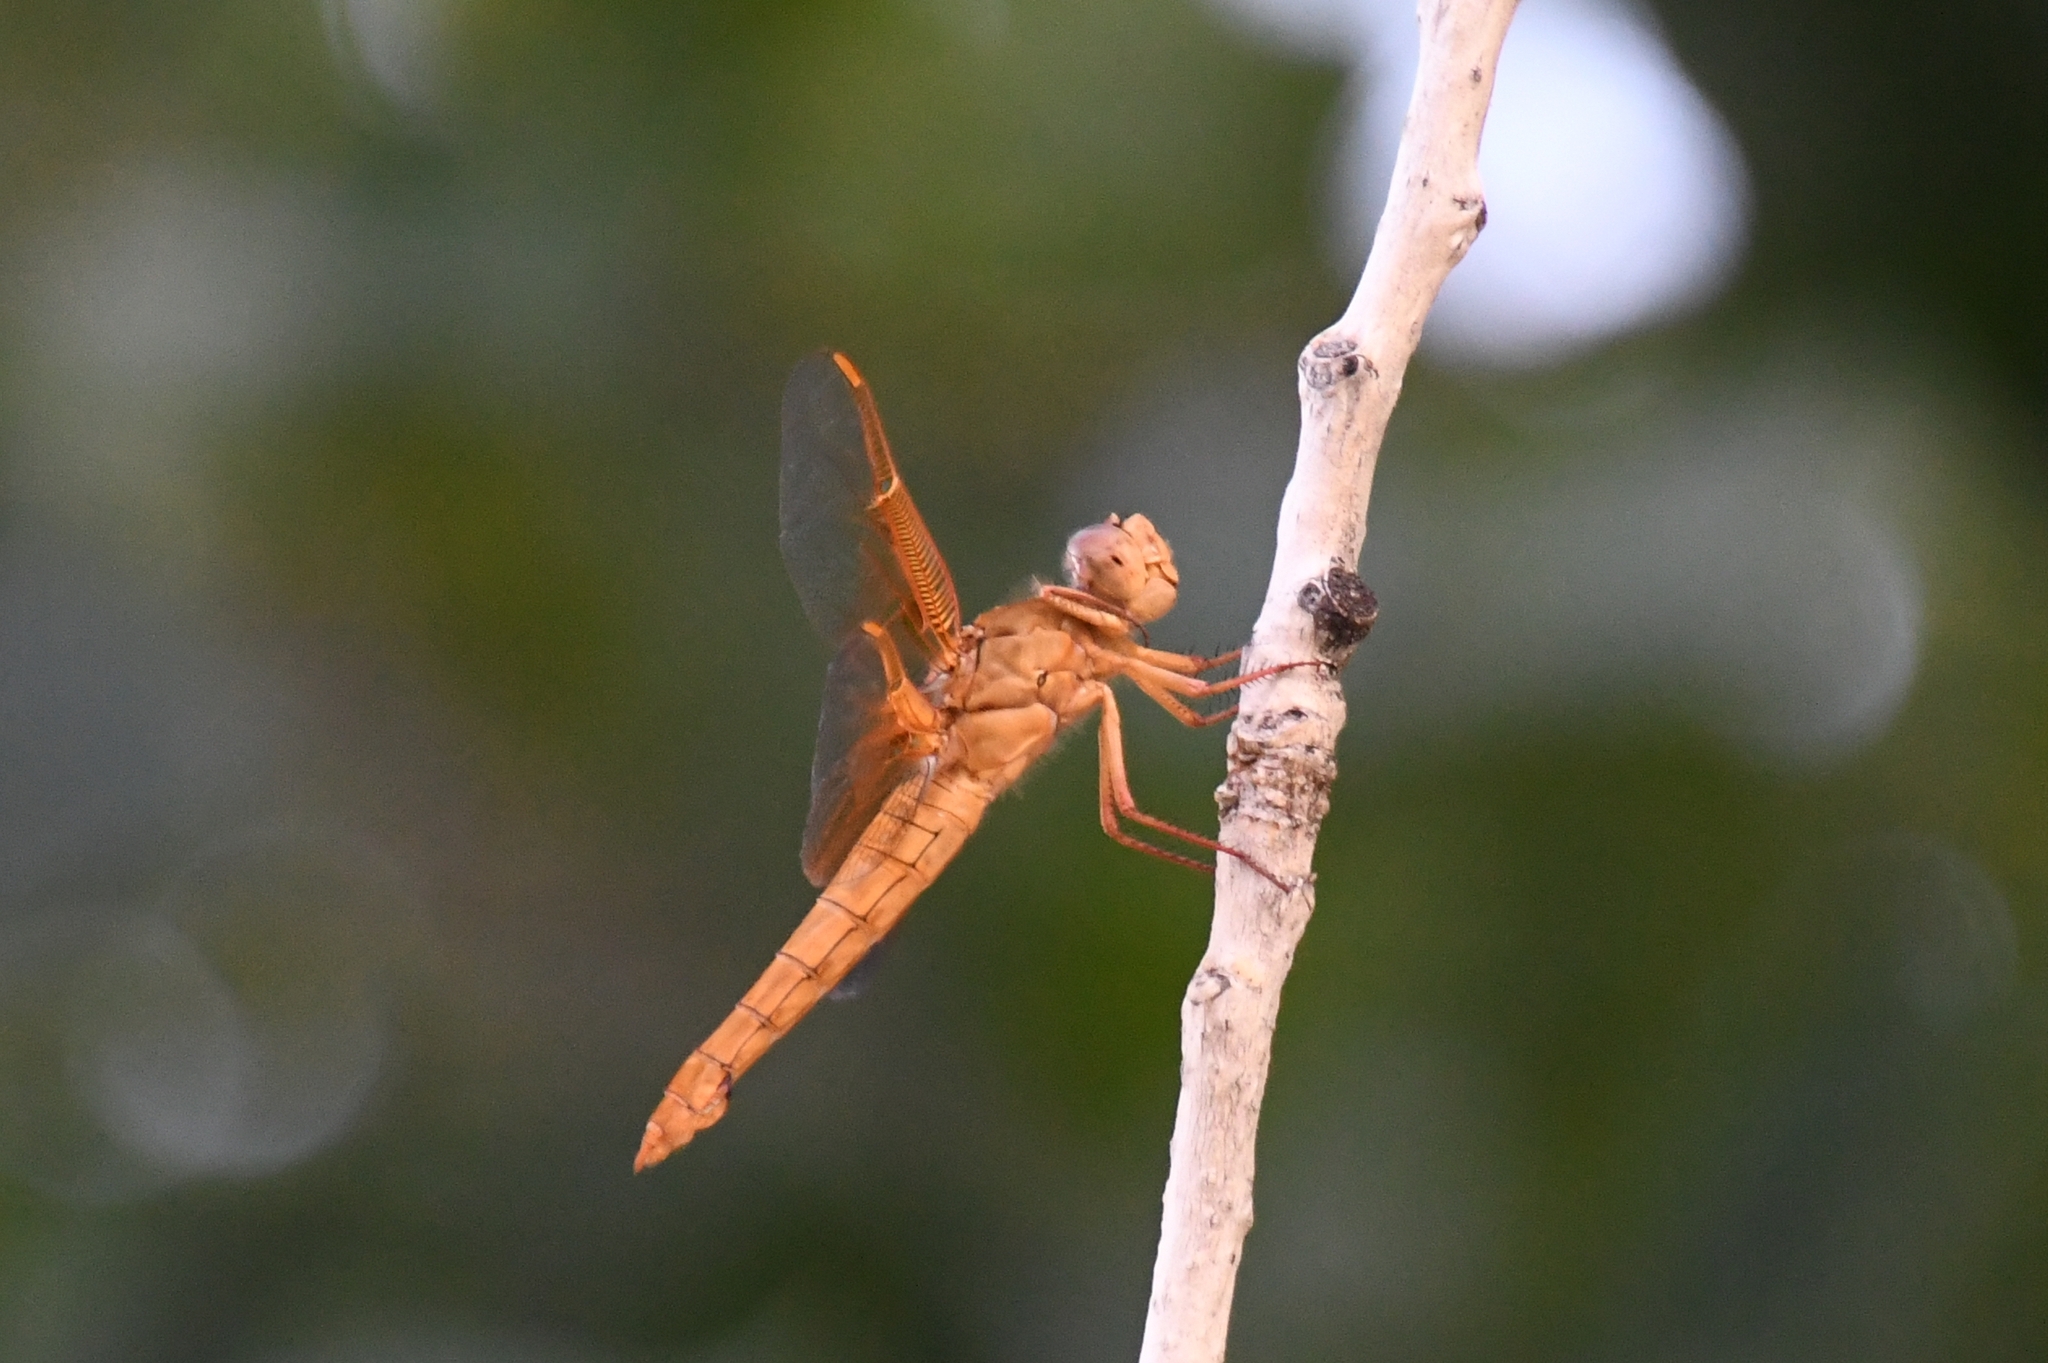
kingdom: Animalia
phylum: Arthropoda
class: Insecta
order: Odonata
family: Libellulidae
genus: Libellula
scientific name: Libellula saturata
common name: Flame skimmer
